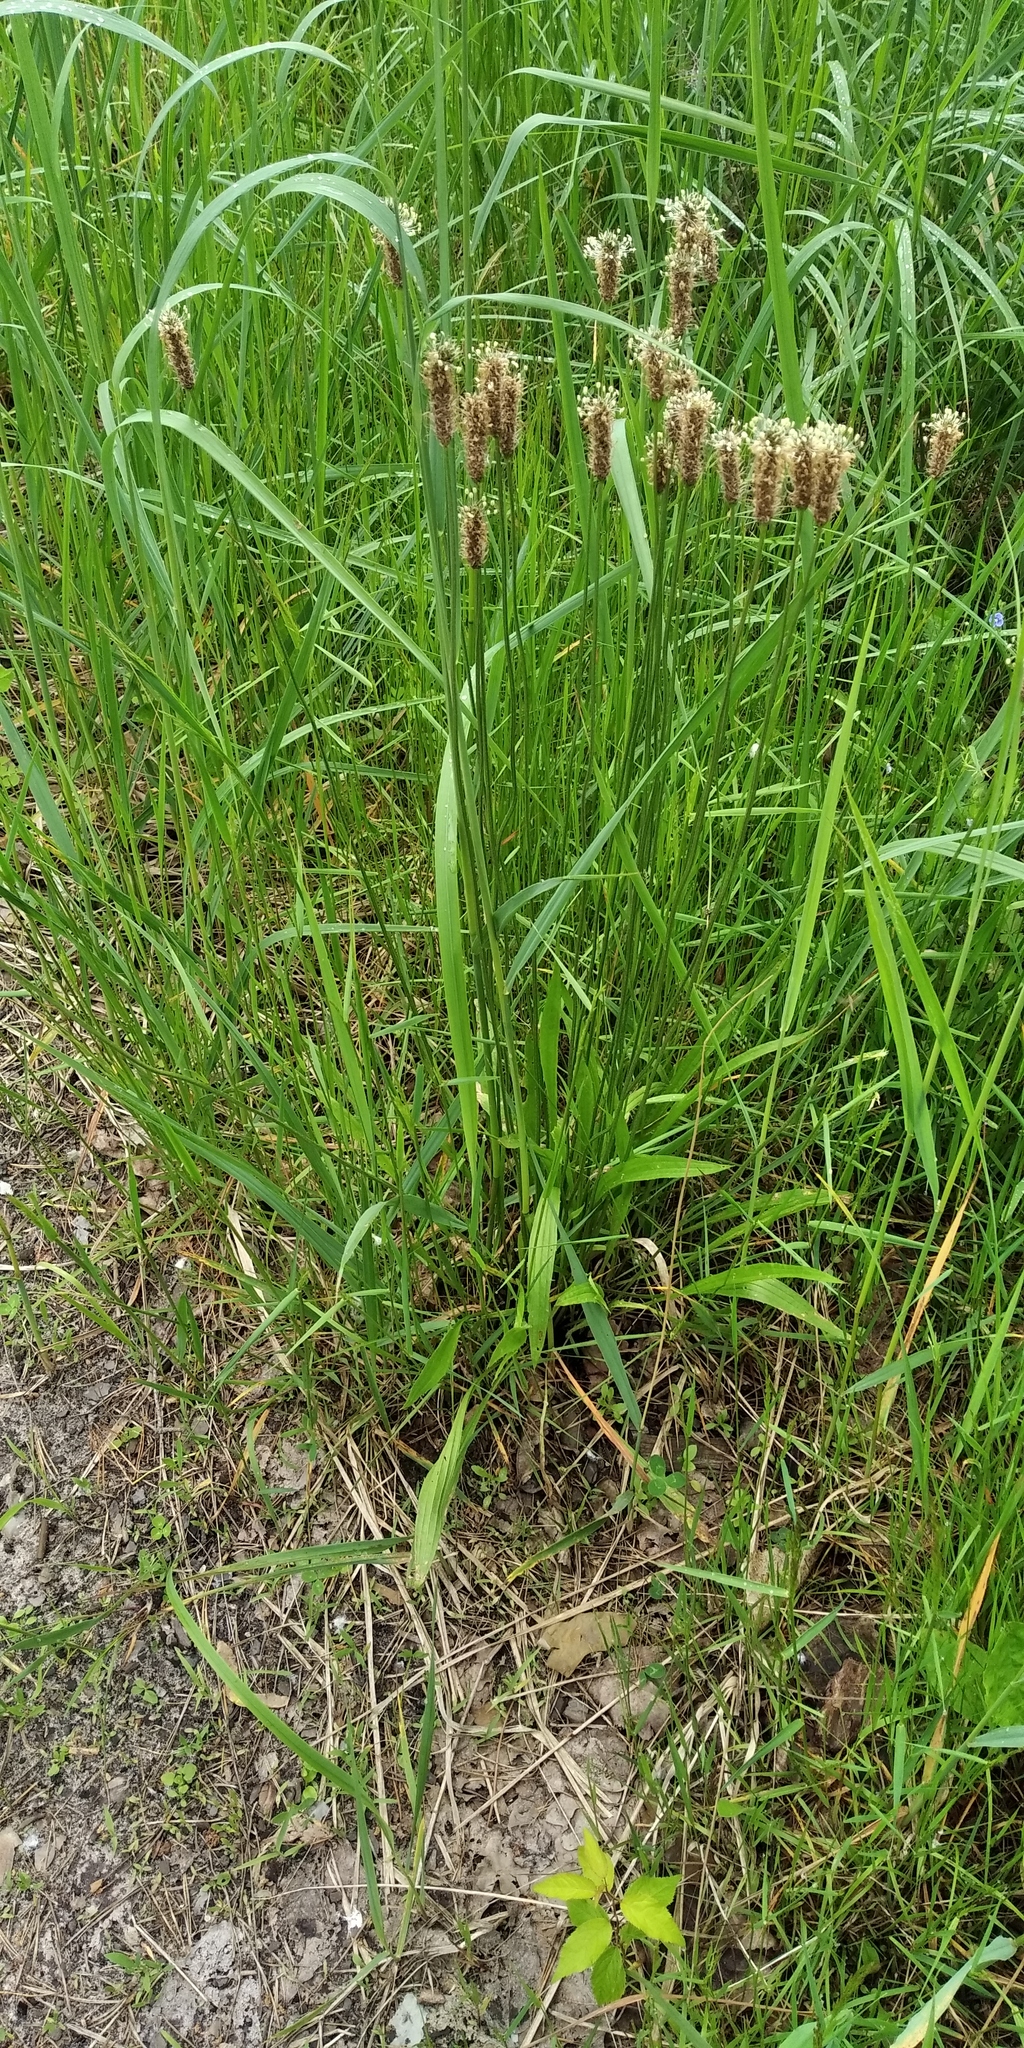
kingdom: Plantae
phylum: Tracheophyta
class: Magnoliopsida
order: Lamiales
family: Plantaginaceae
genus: Plantago
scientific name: Plantago lanceolata
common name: Ribwort plantain
